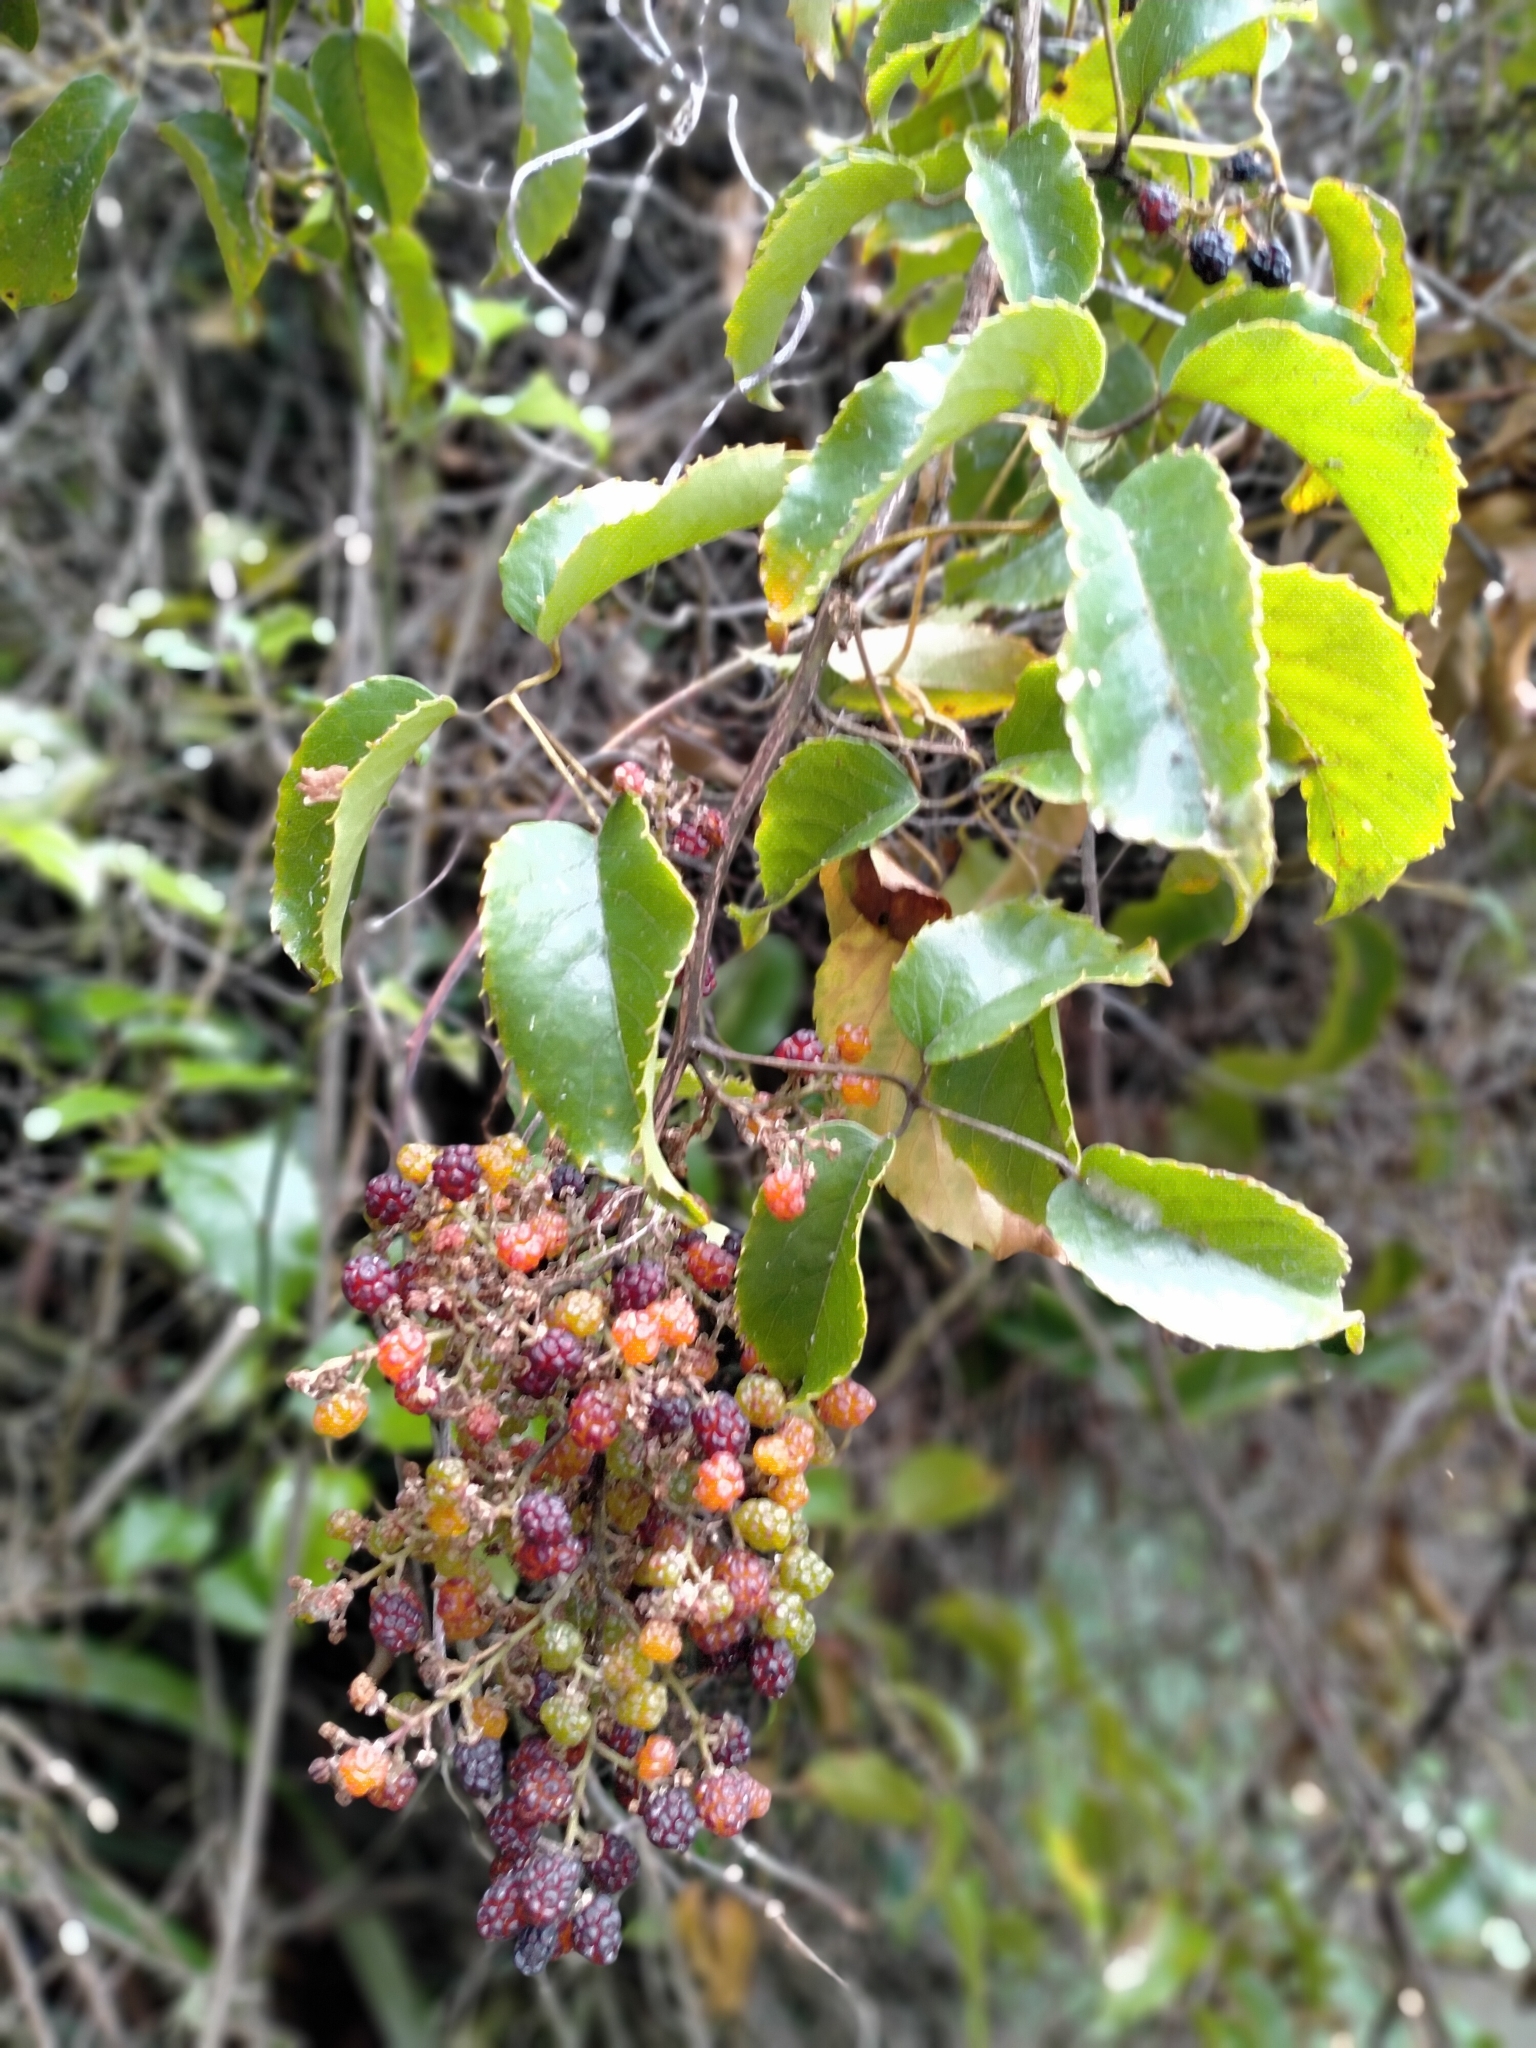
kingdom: Plantae
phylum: Tracheophyta
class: Magnoliopsida
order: Rosales
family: Rosaceae
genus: Rubus
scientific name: Rubus cissoides
